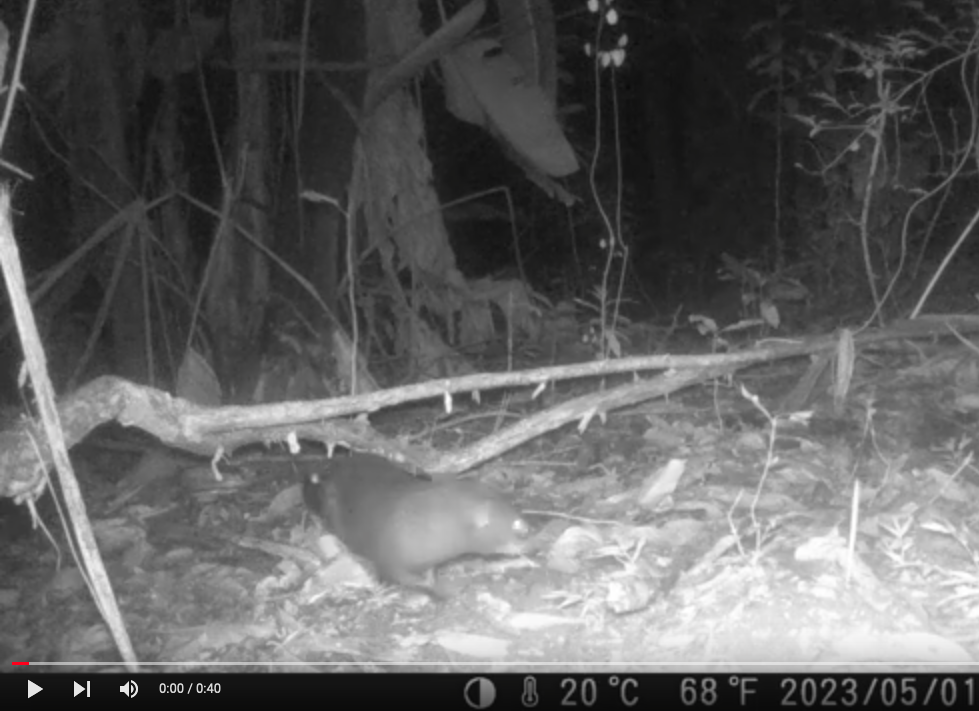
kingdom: Animalia
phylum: Chordata
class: Mammalia
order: Carnivora
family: Herpestidae
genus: Atilax
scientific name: Atilax paludinosus
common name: Marsh mongoose
